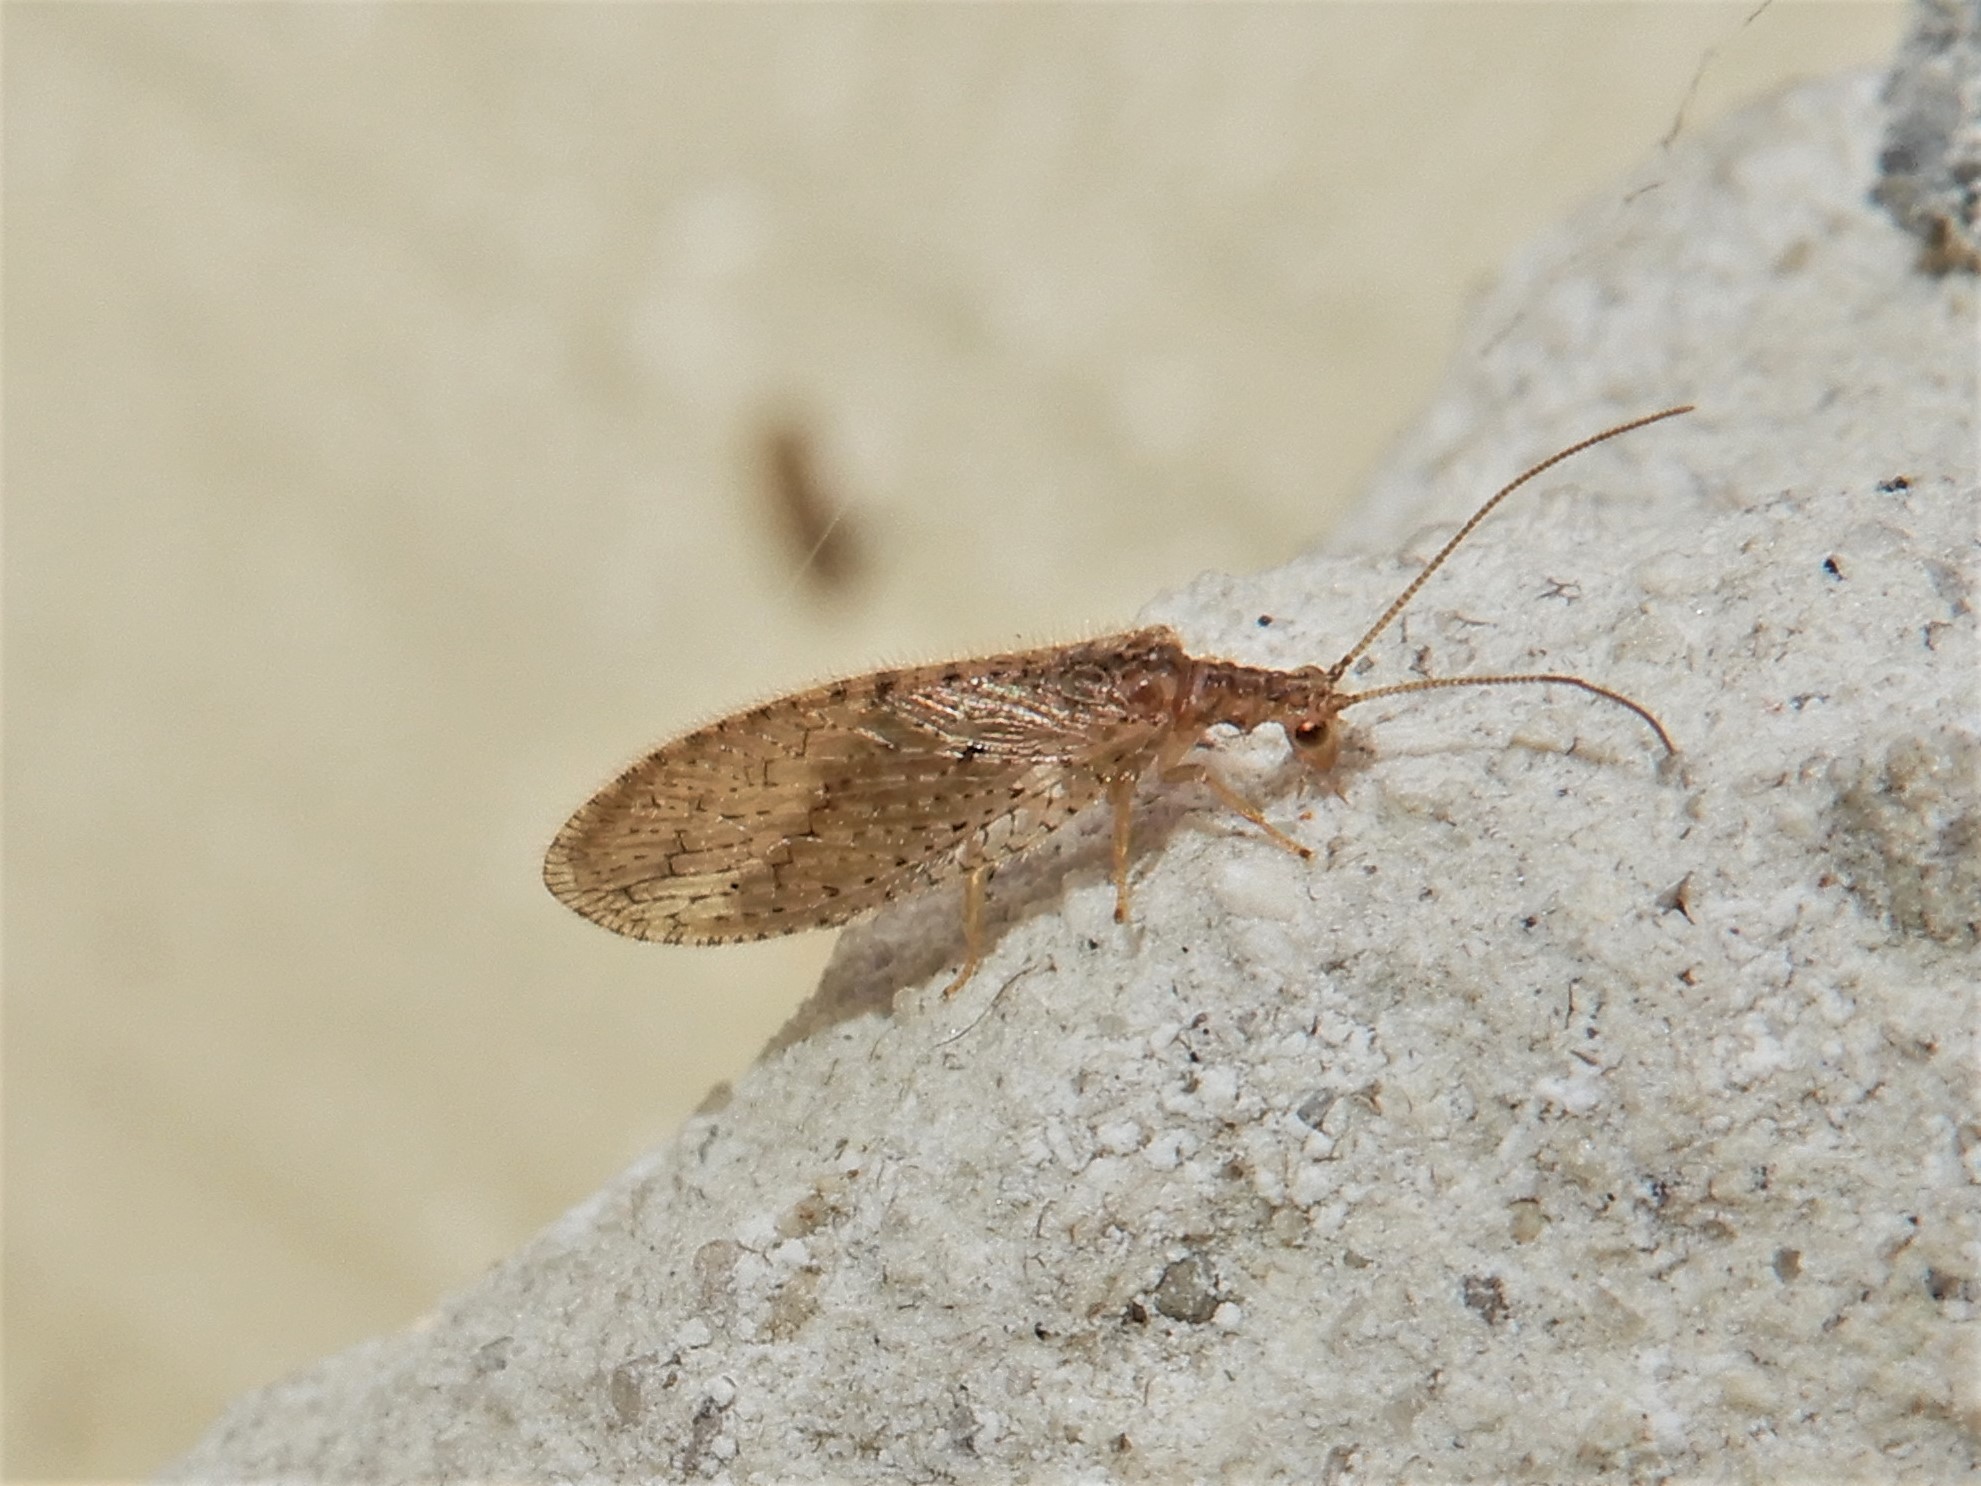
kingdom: Animalia
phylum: Arthropoda
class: Insecta
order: Neuroptera
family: Hemerobiidae
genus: Micromus
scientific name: Micromus tasmaniae
